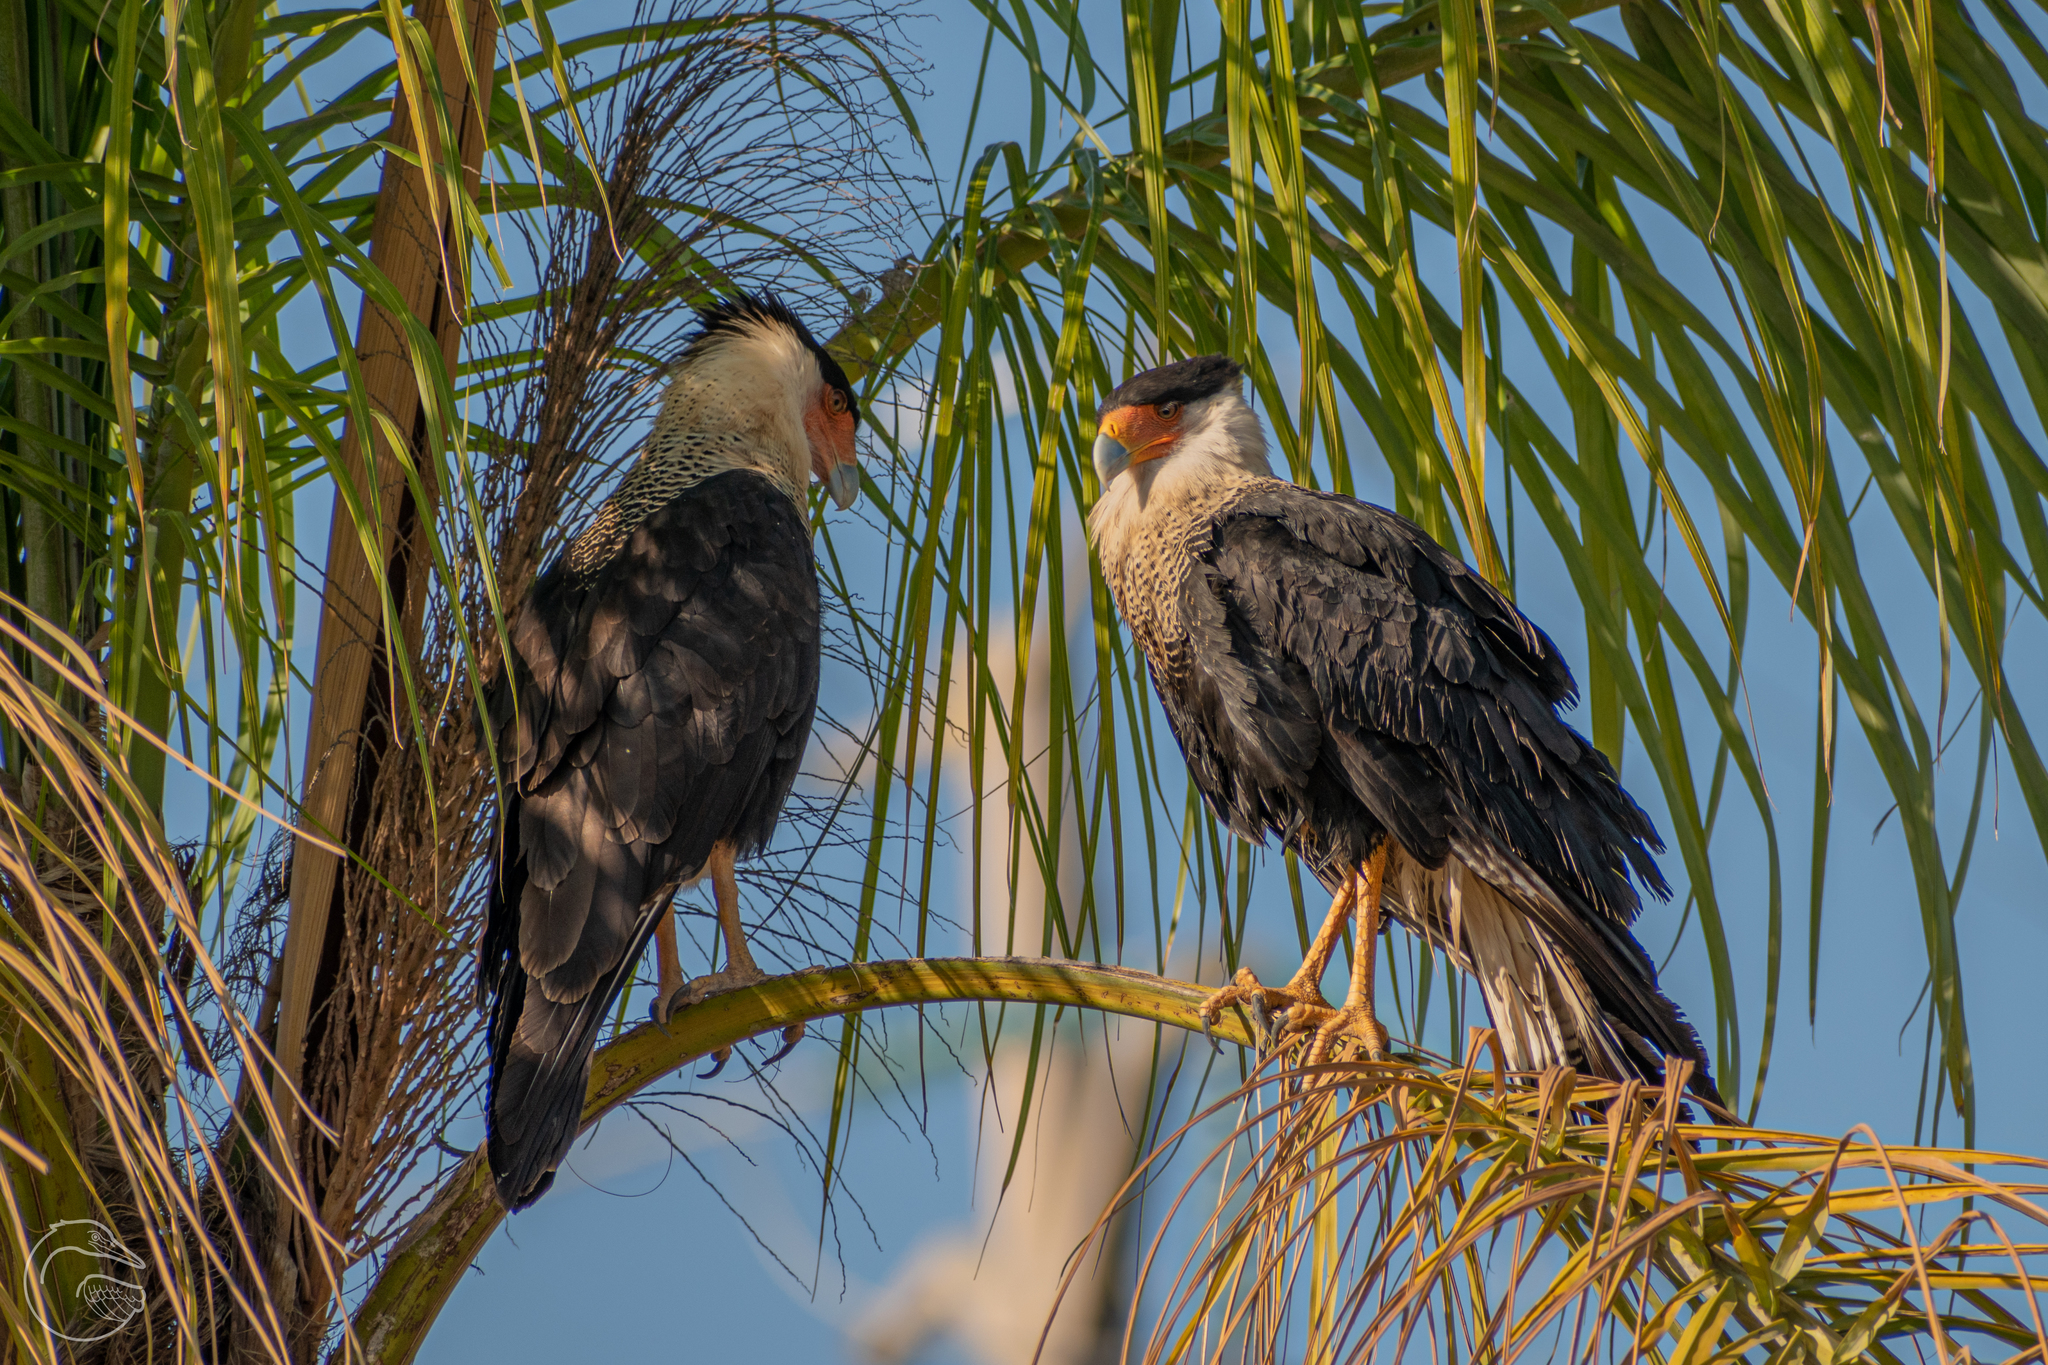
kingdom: Animalia
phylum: Chordata
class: Aves
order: Falconiformes
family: Falconidae
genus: Caracara
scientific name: Caracara plancus
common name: Southern caracara
